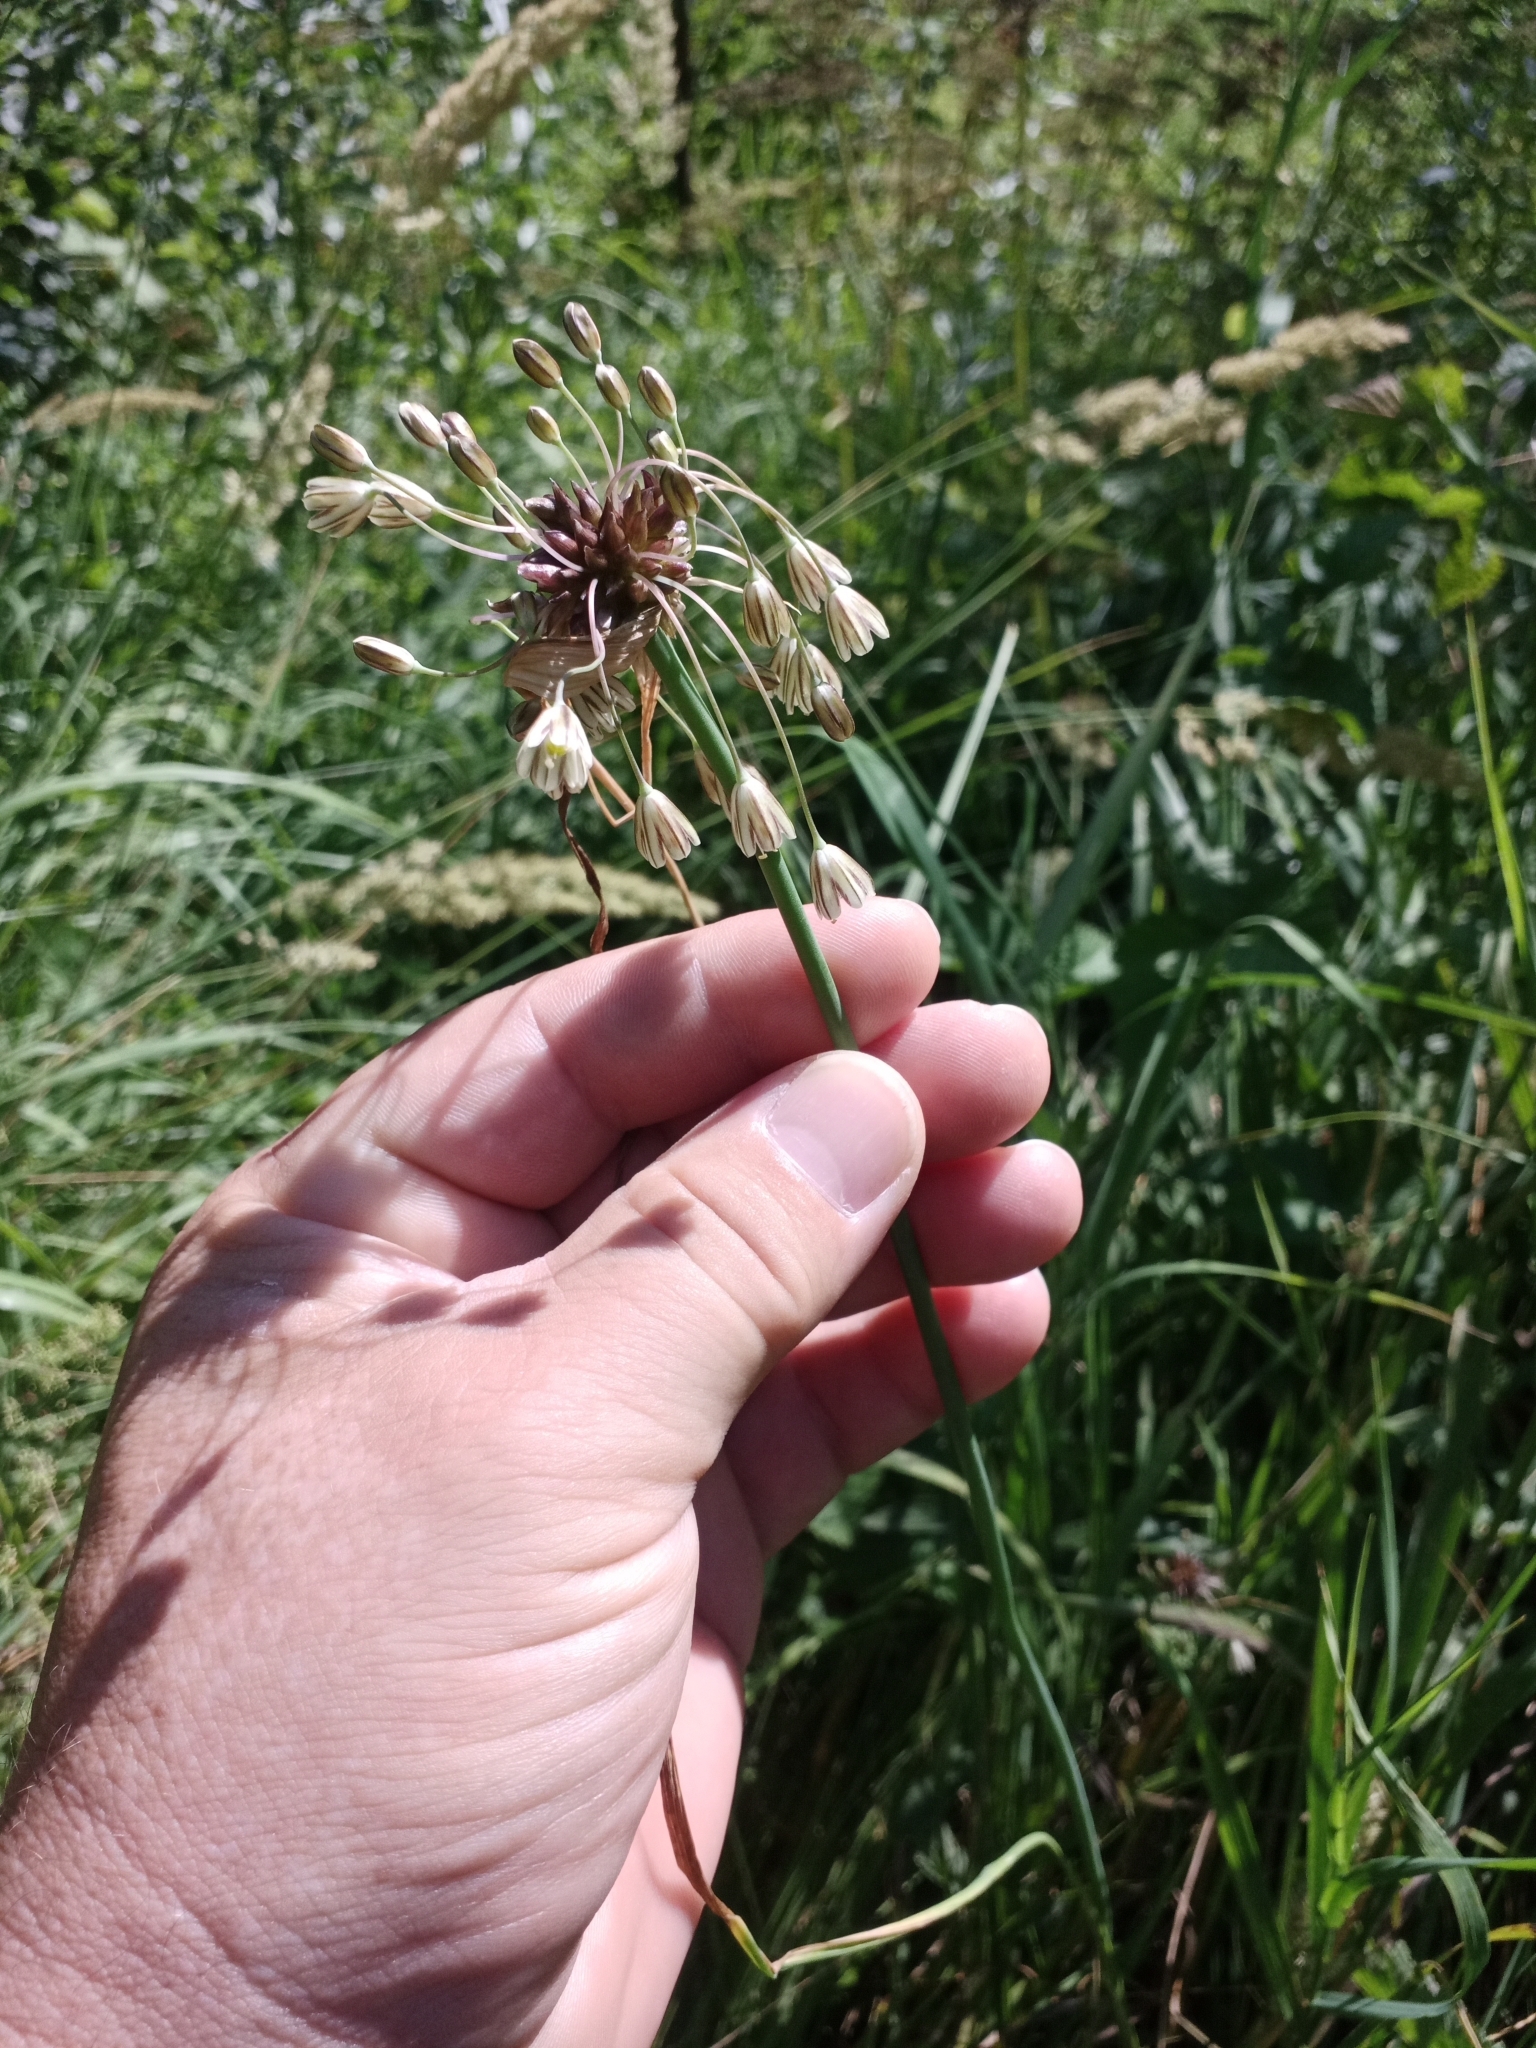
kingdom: Plantae
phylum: Tracheophyta
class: Liliopsida
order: Asparagales
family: Amaryllidaceae
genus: Allium
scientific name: Allium oleraceum
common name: Field garlic
